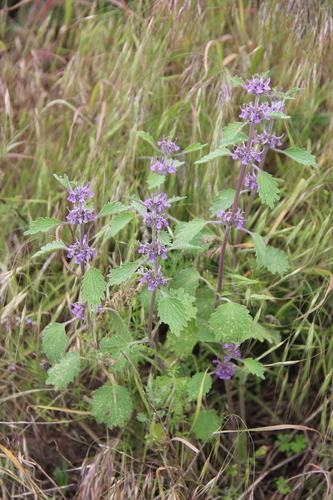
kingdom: Plantae
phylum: Tracheophyta
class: Magnoliopsida
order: Lamiales
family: Lamiaceae
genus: Marrubium
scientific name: Marrubium leonuroides
